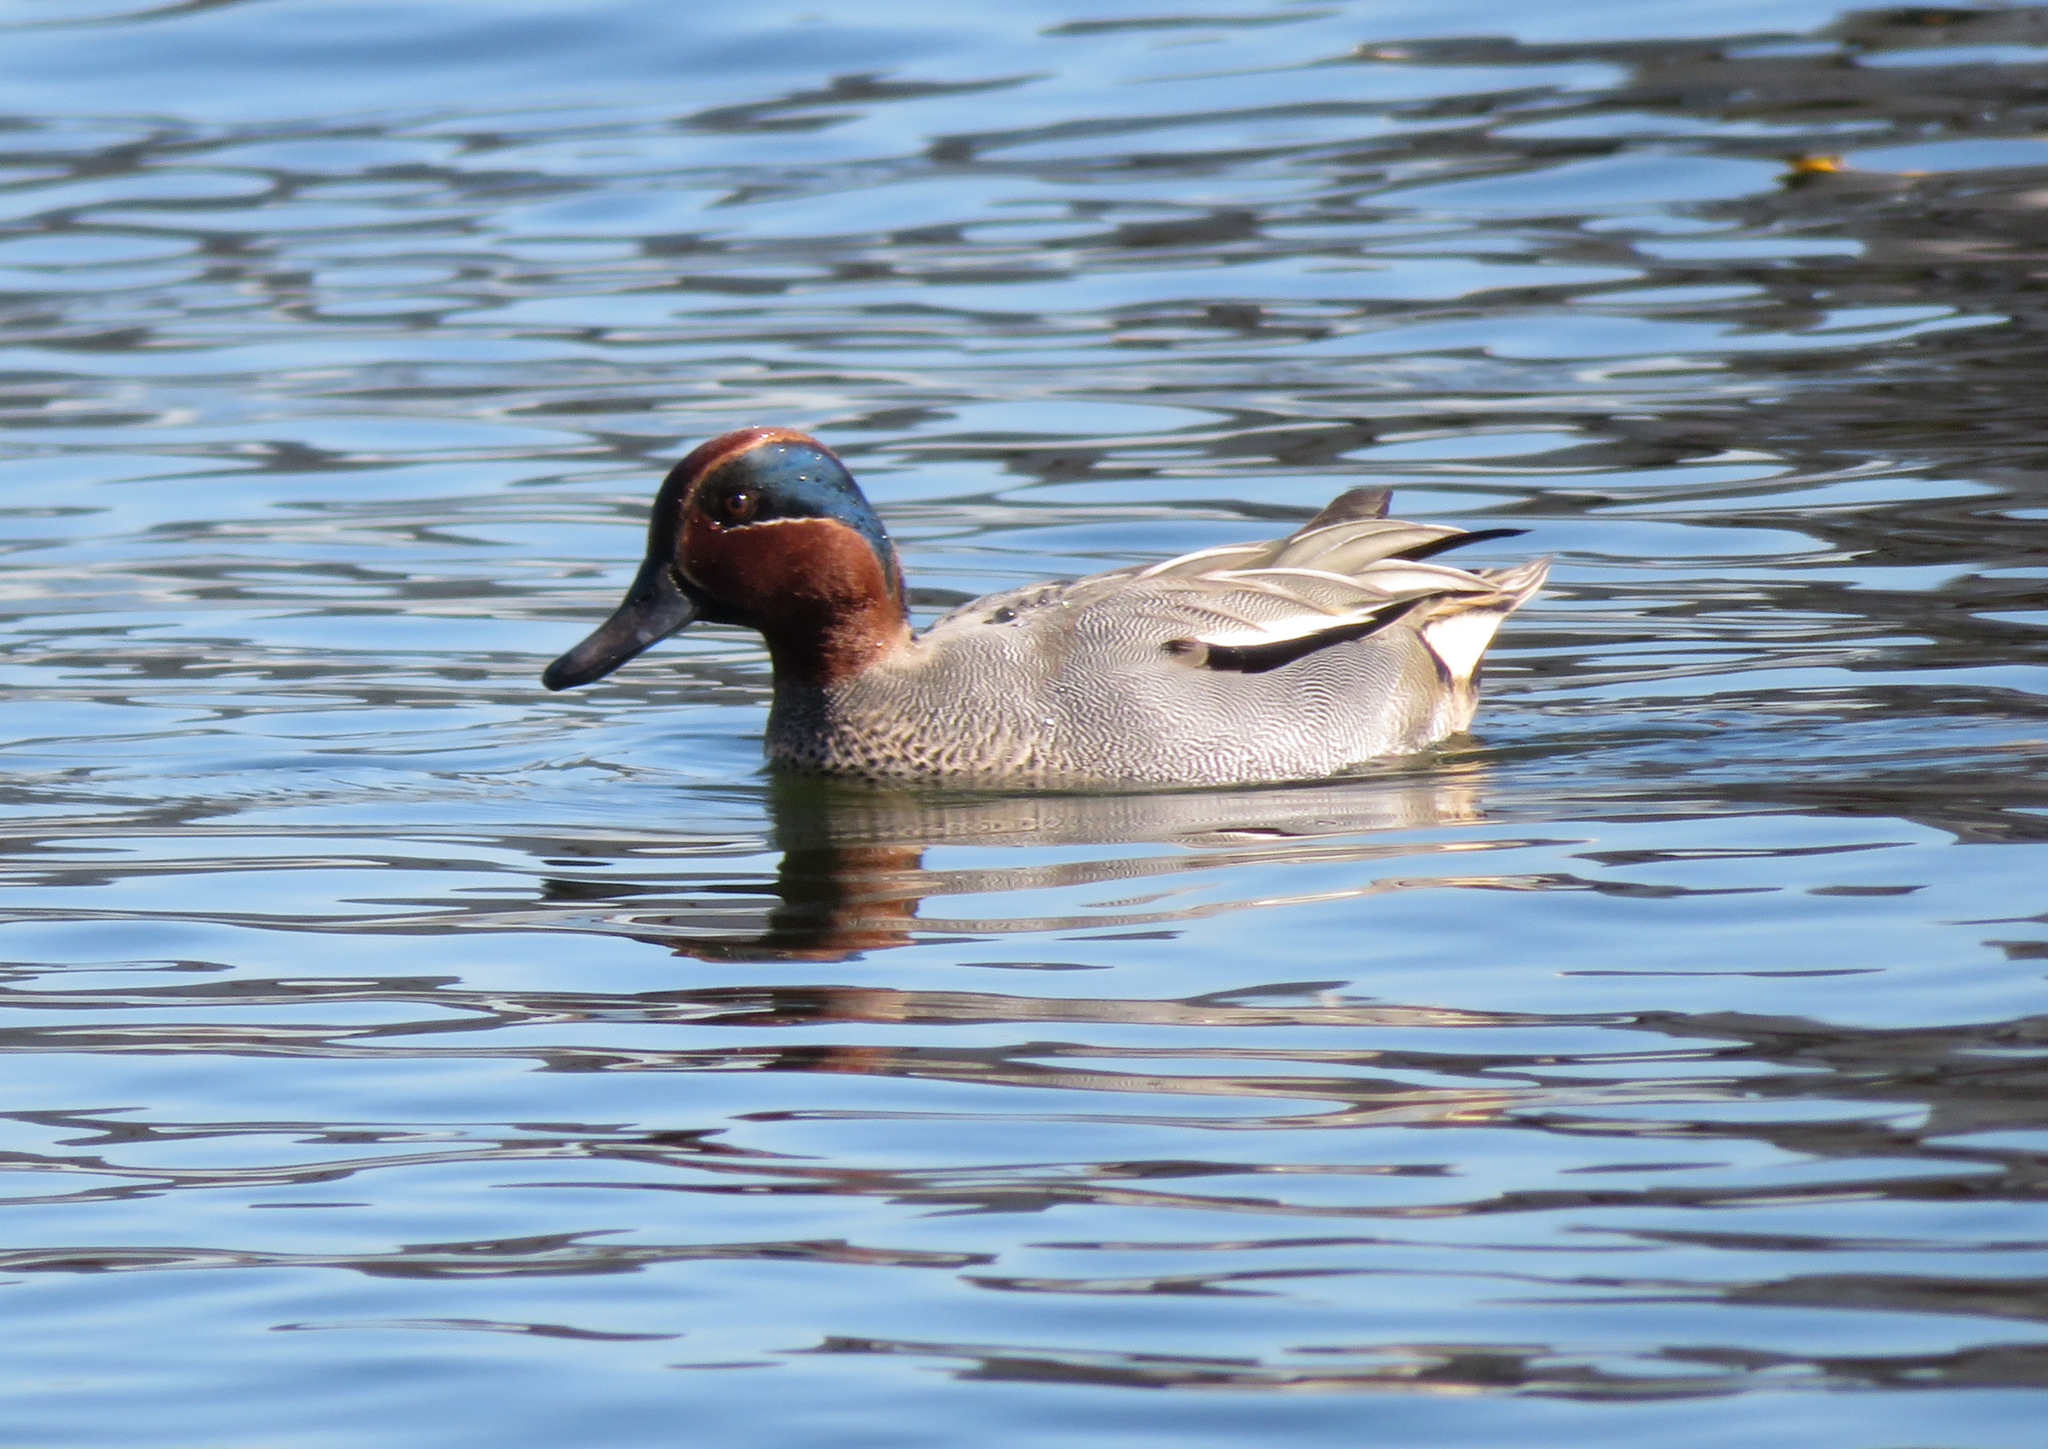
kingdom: Animalia
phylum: Chordata
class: Aves
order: Anseriformes
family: Anatidae
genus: Anas
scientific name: Anas crecca
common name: Eurasian teal
